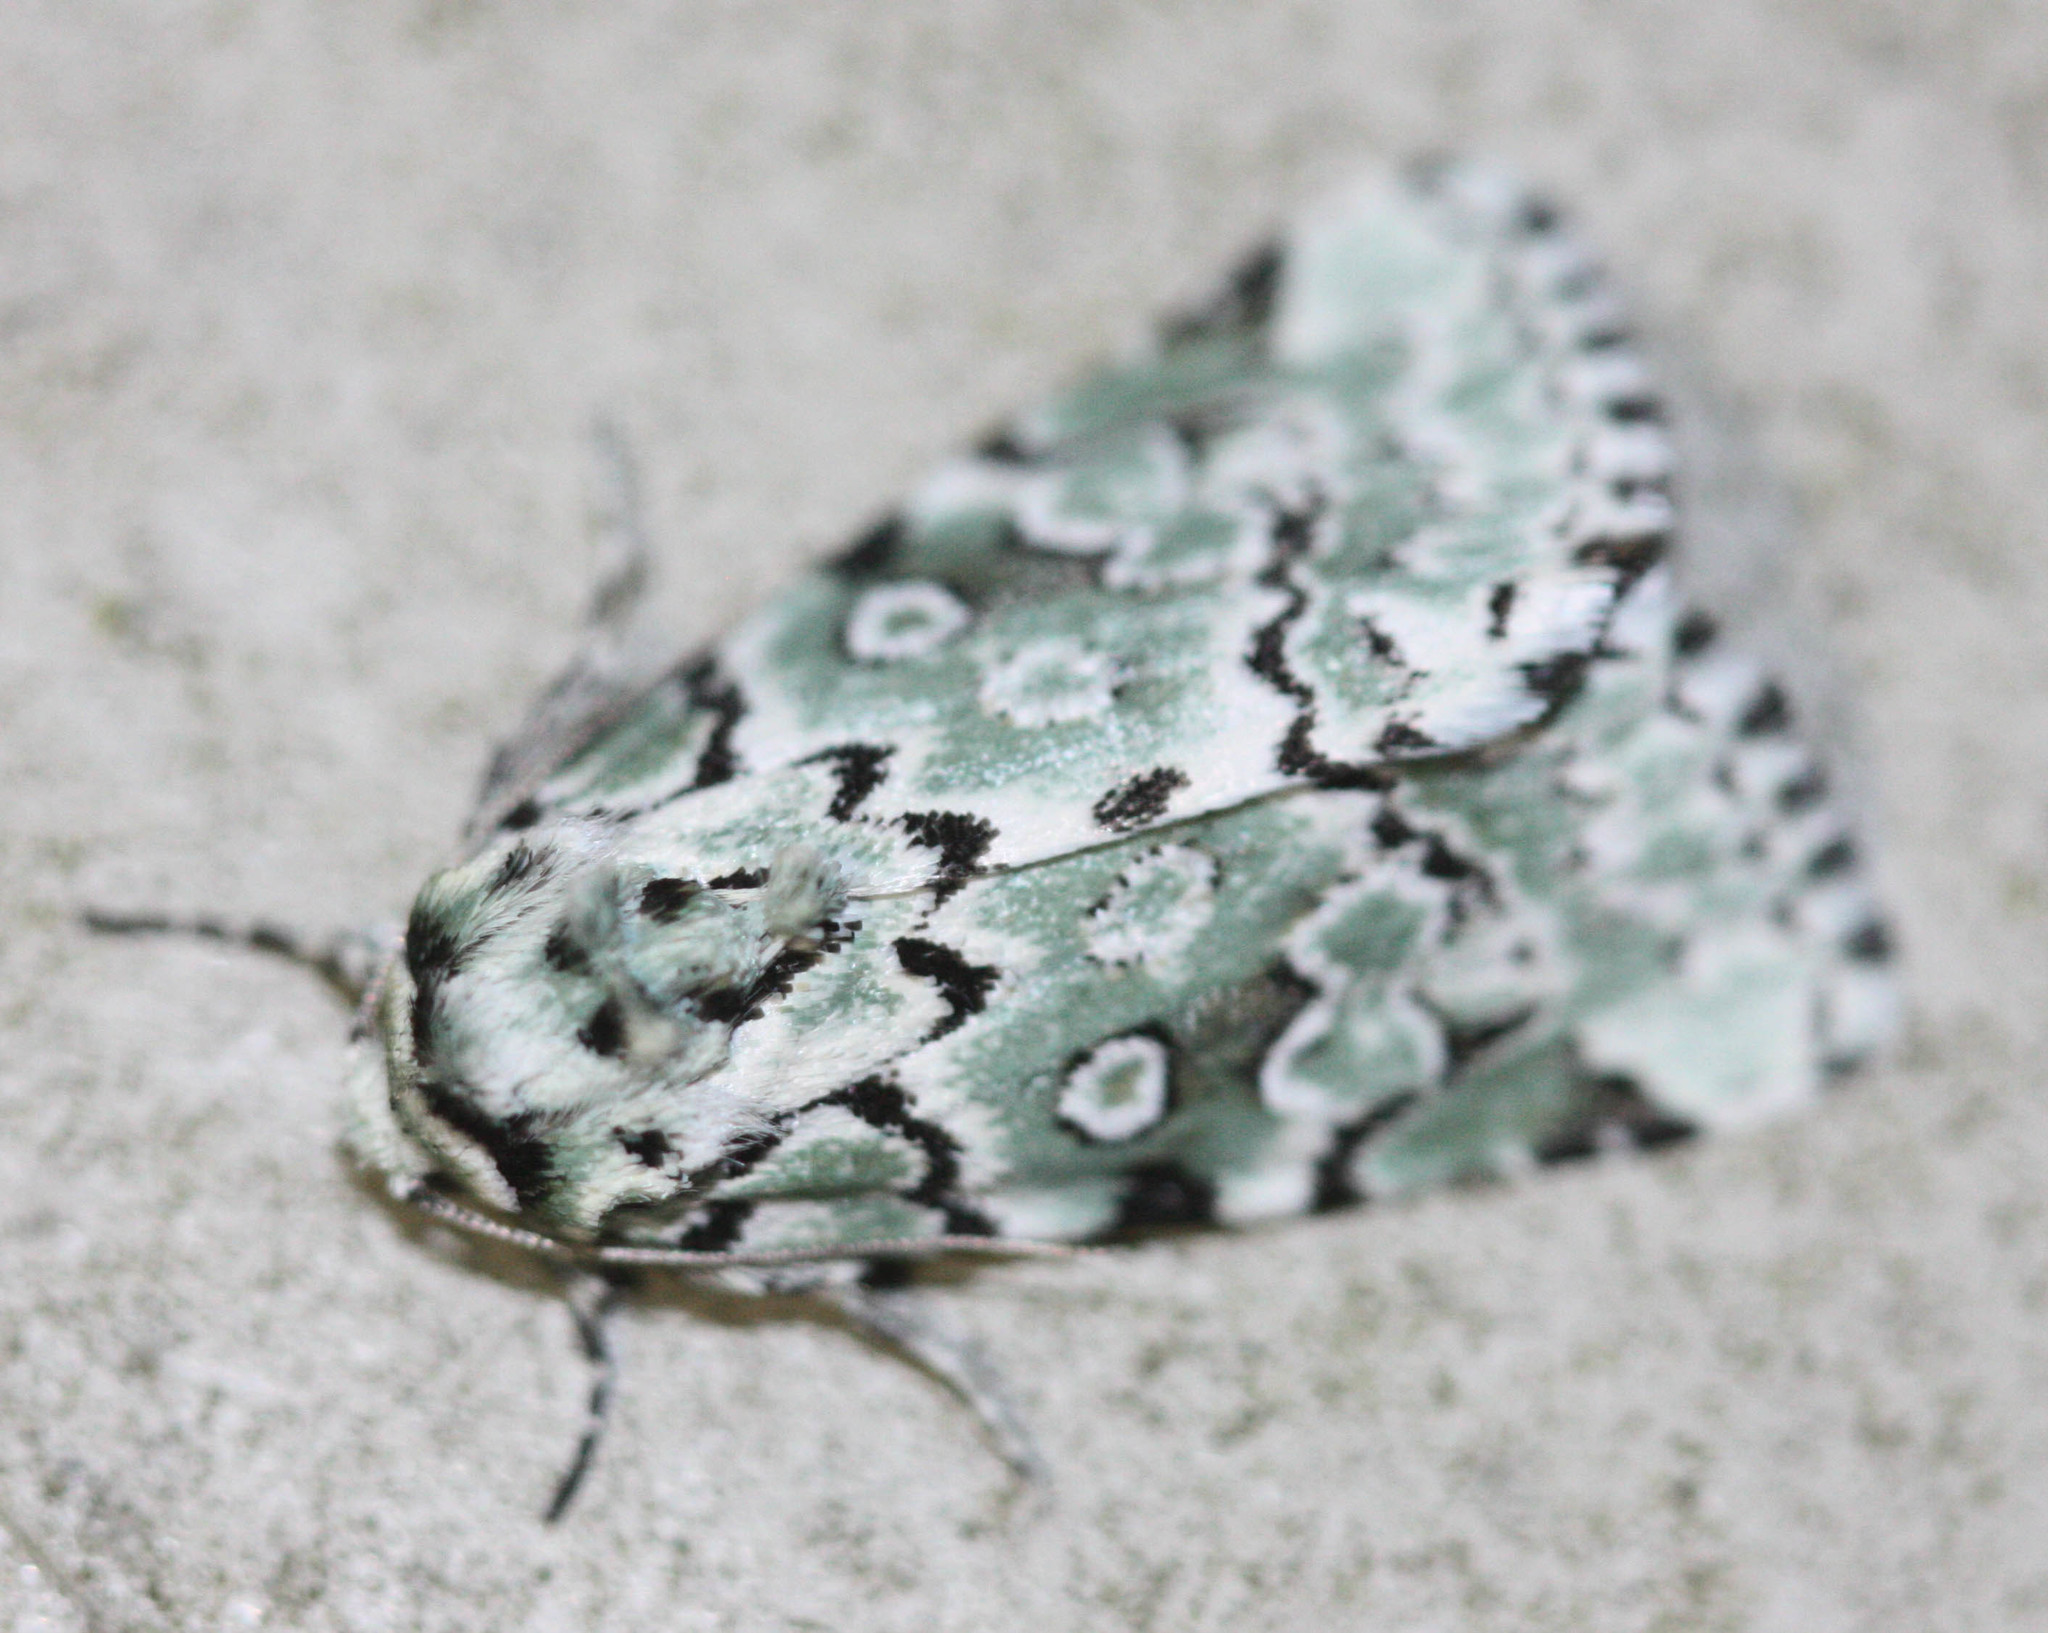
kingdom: Animalia
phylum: Arthropoda
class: Insecta
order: Lepidoptera
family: Noctuidae
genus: Bryolymnia
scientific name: Bryolymnia viridata
